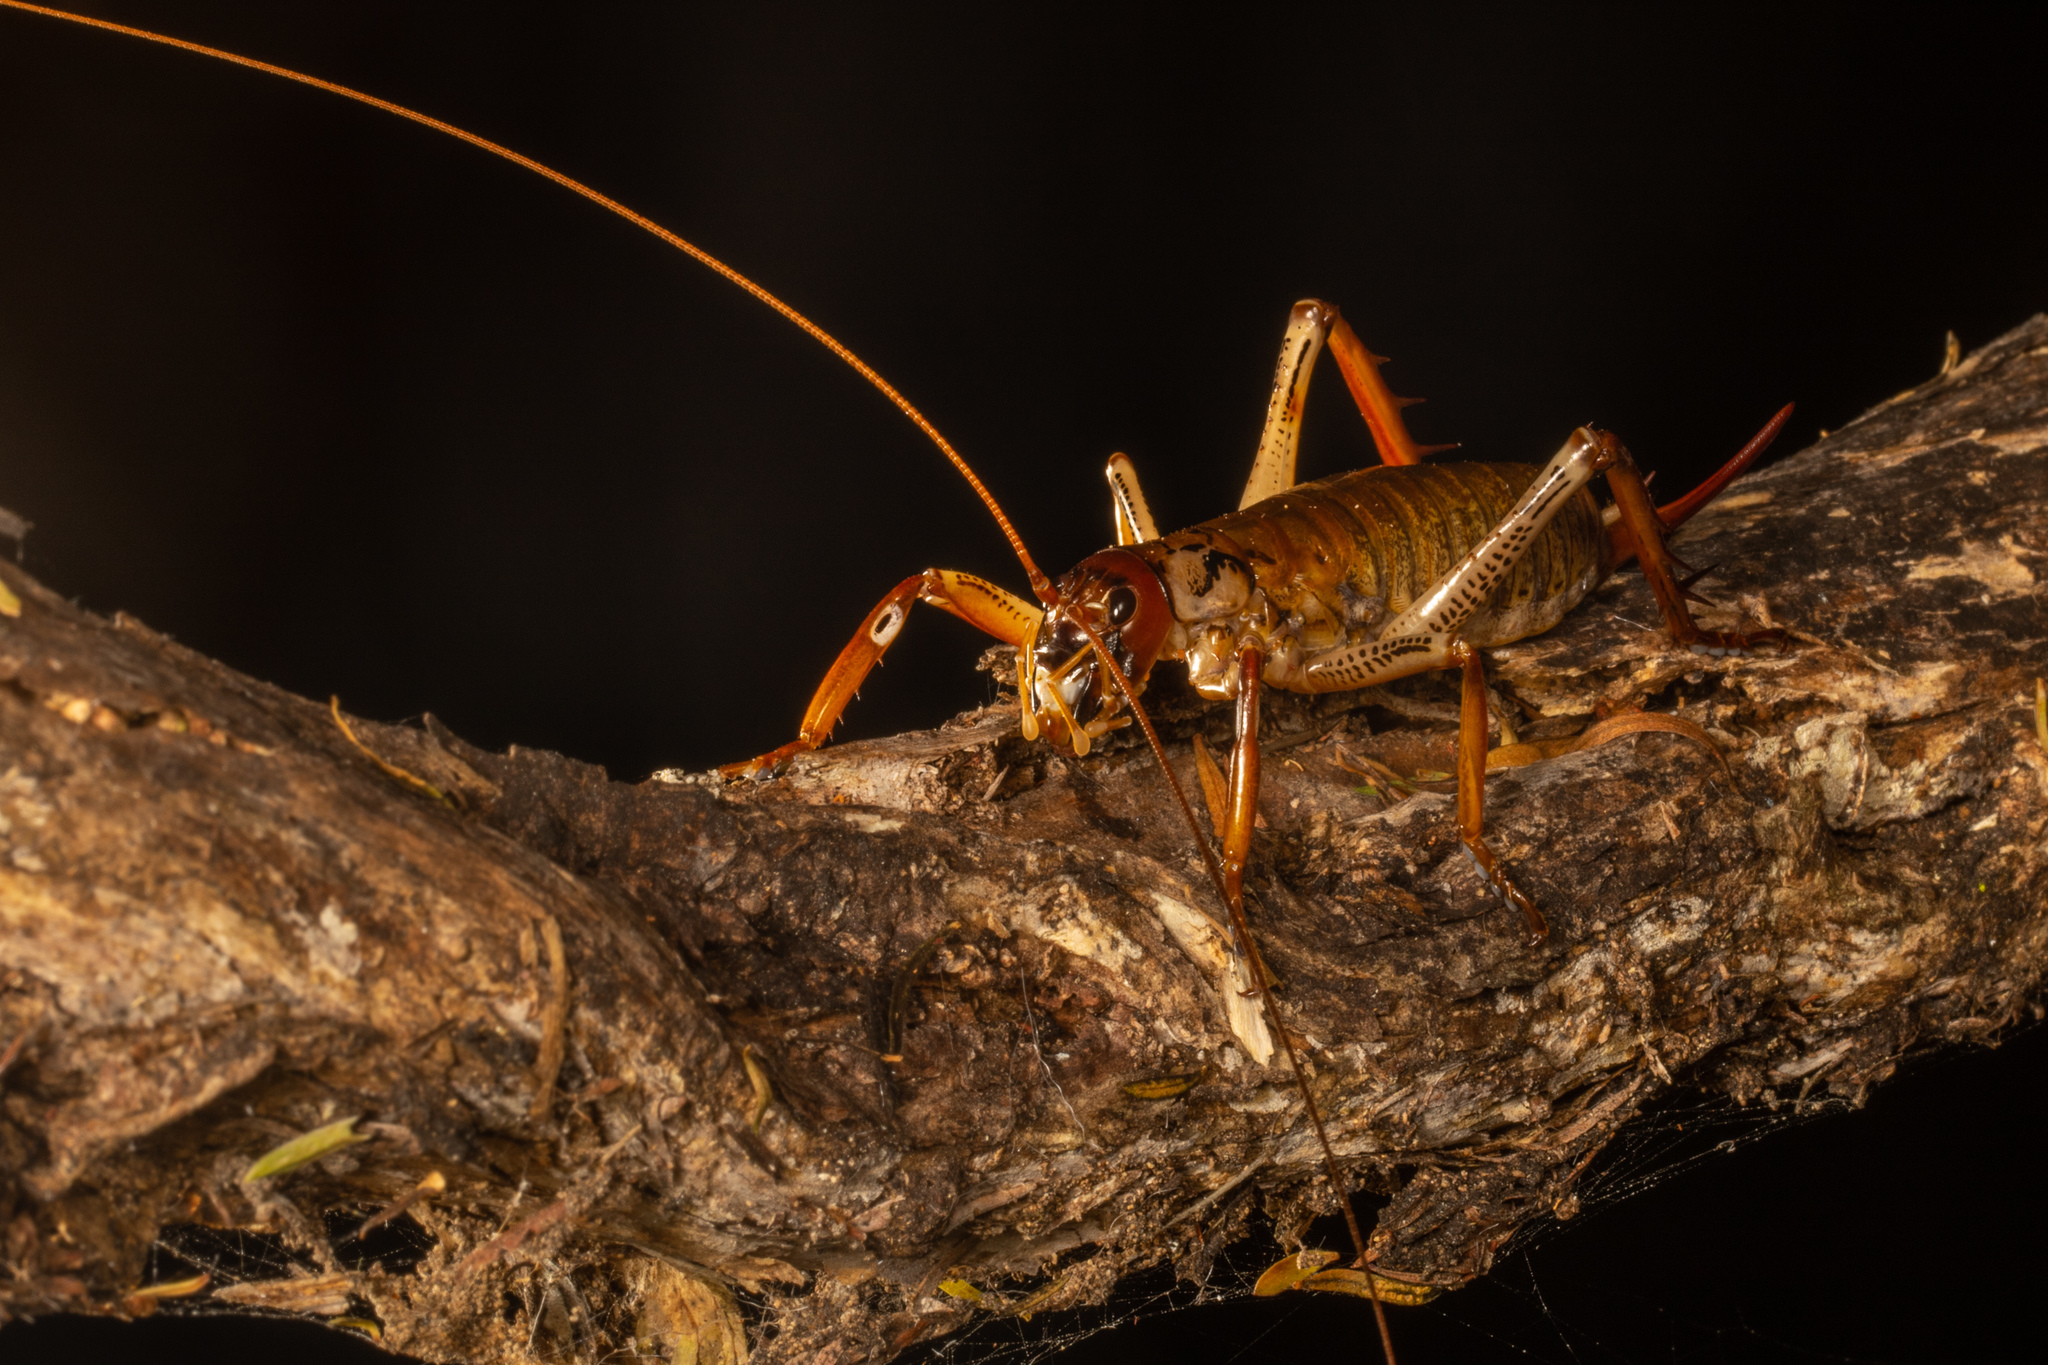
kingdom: Animalia
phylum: Arthropoda
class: Insecta
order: Orthoptera
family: Anostostomatidae
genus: Hemideina
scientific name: Hemideina thoracica
